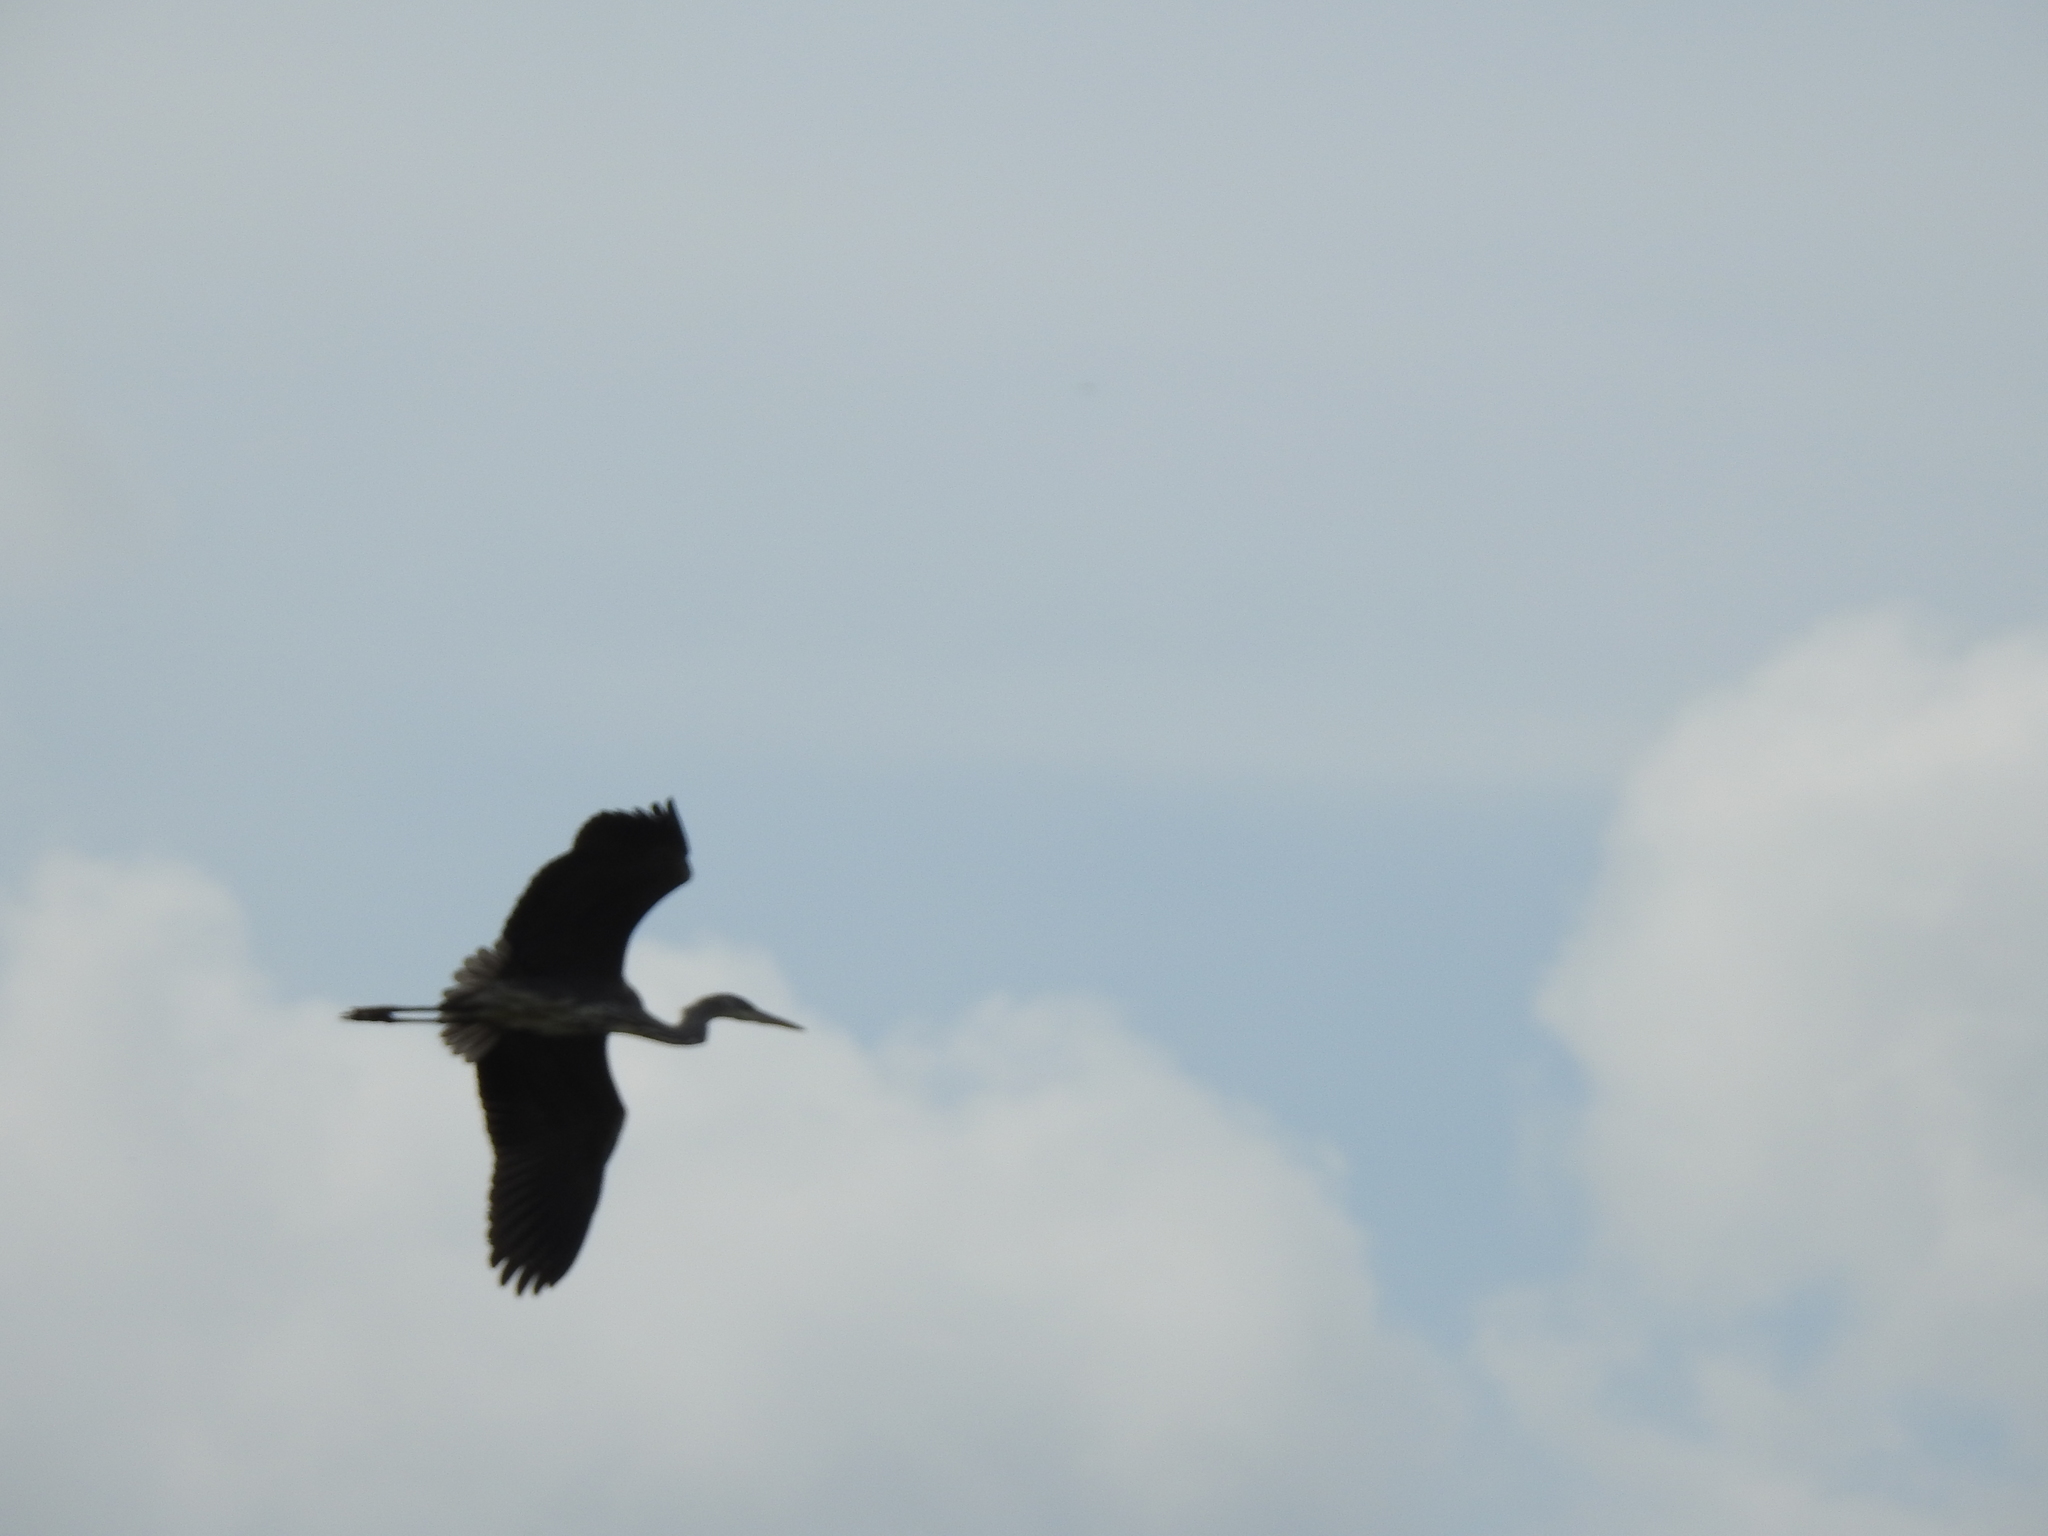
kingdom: Animalia
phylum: Chordata
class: Aves
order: Pelecaniformes
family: Ardeidae
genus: Ardea
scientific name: Ardea cinerea
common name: Grey heron
